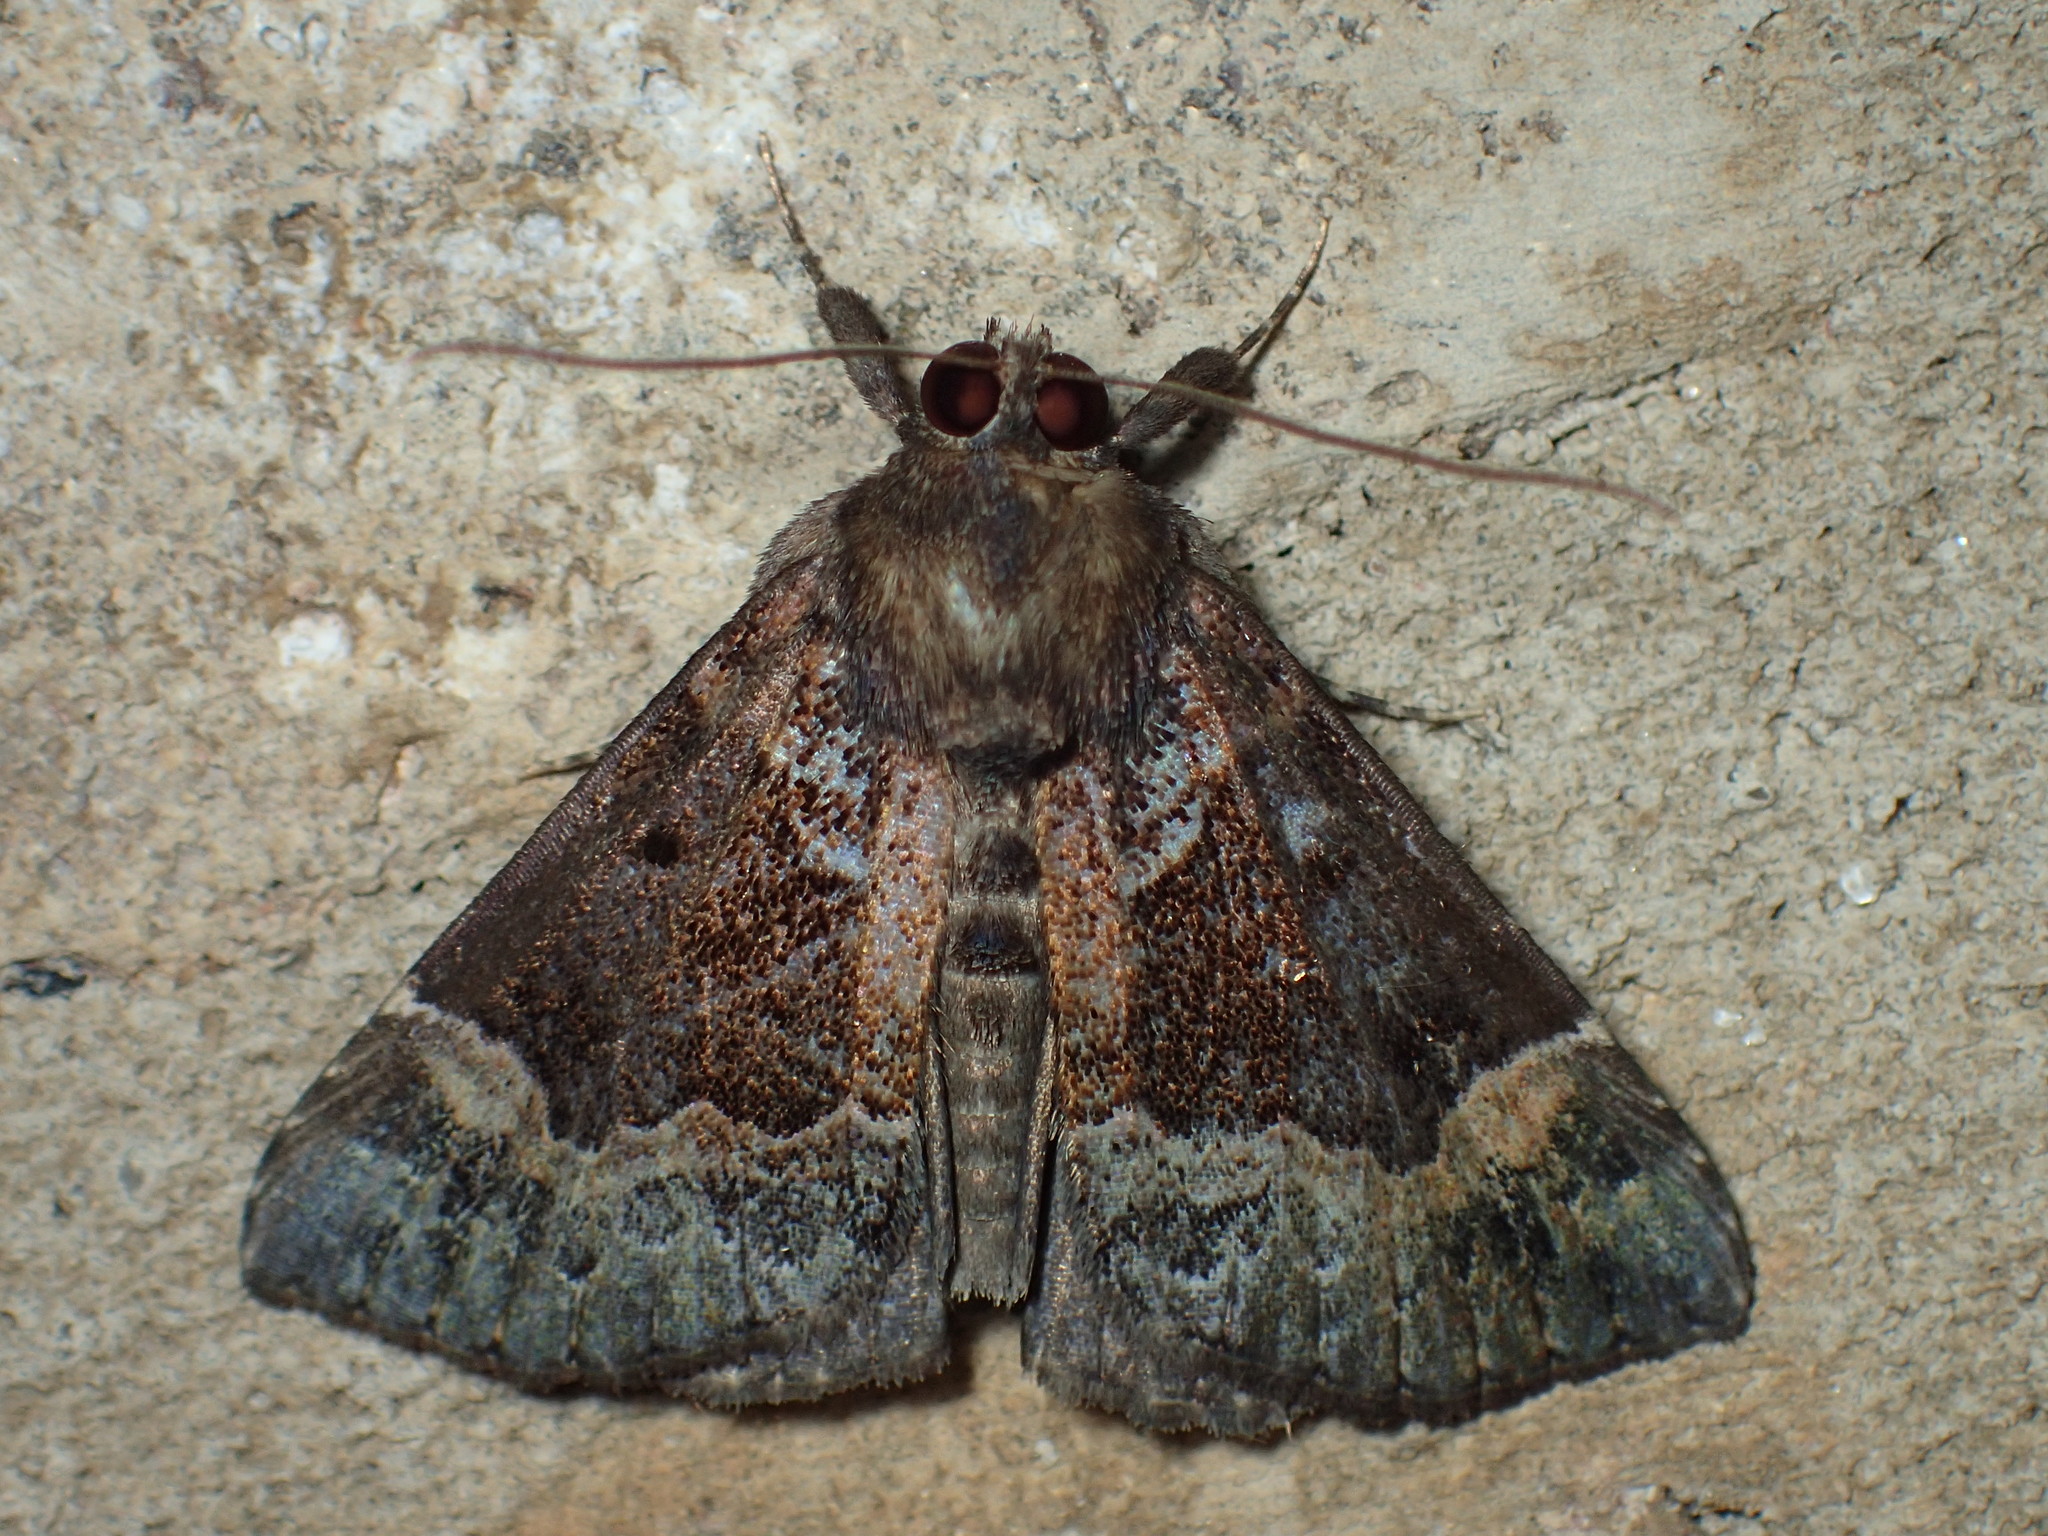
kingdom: Animalia
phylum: Arthropoda
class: Insecta
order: Lepidoptera
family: Erebidae
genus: Hypena
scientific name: Hypena palparia
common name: Mottled bomolocha moth
